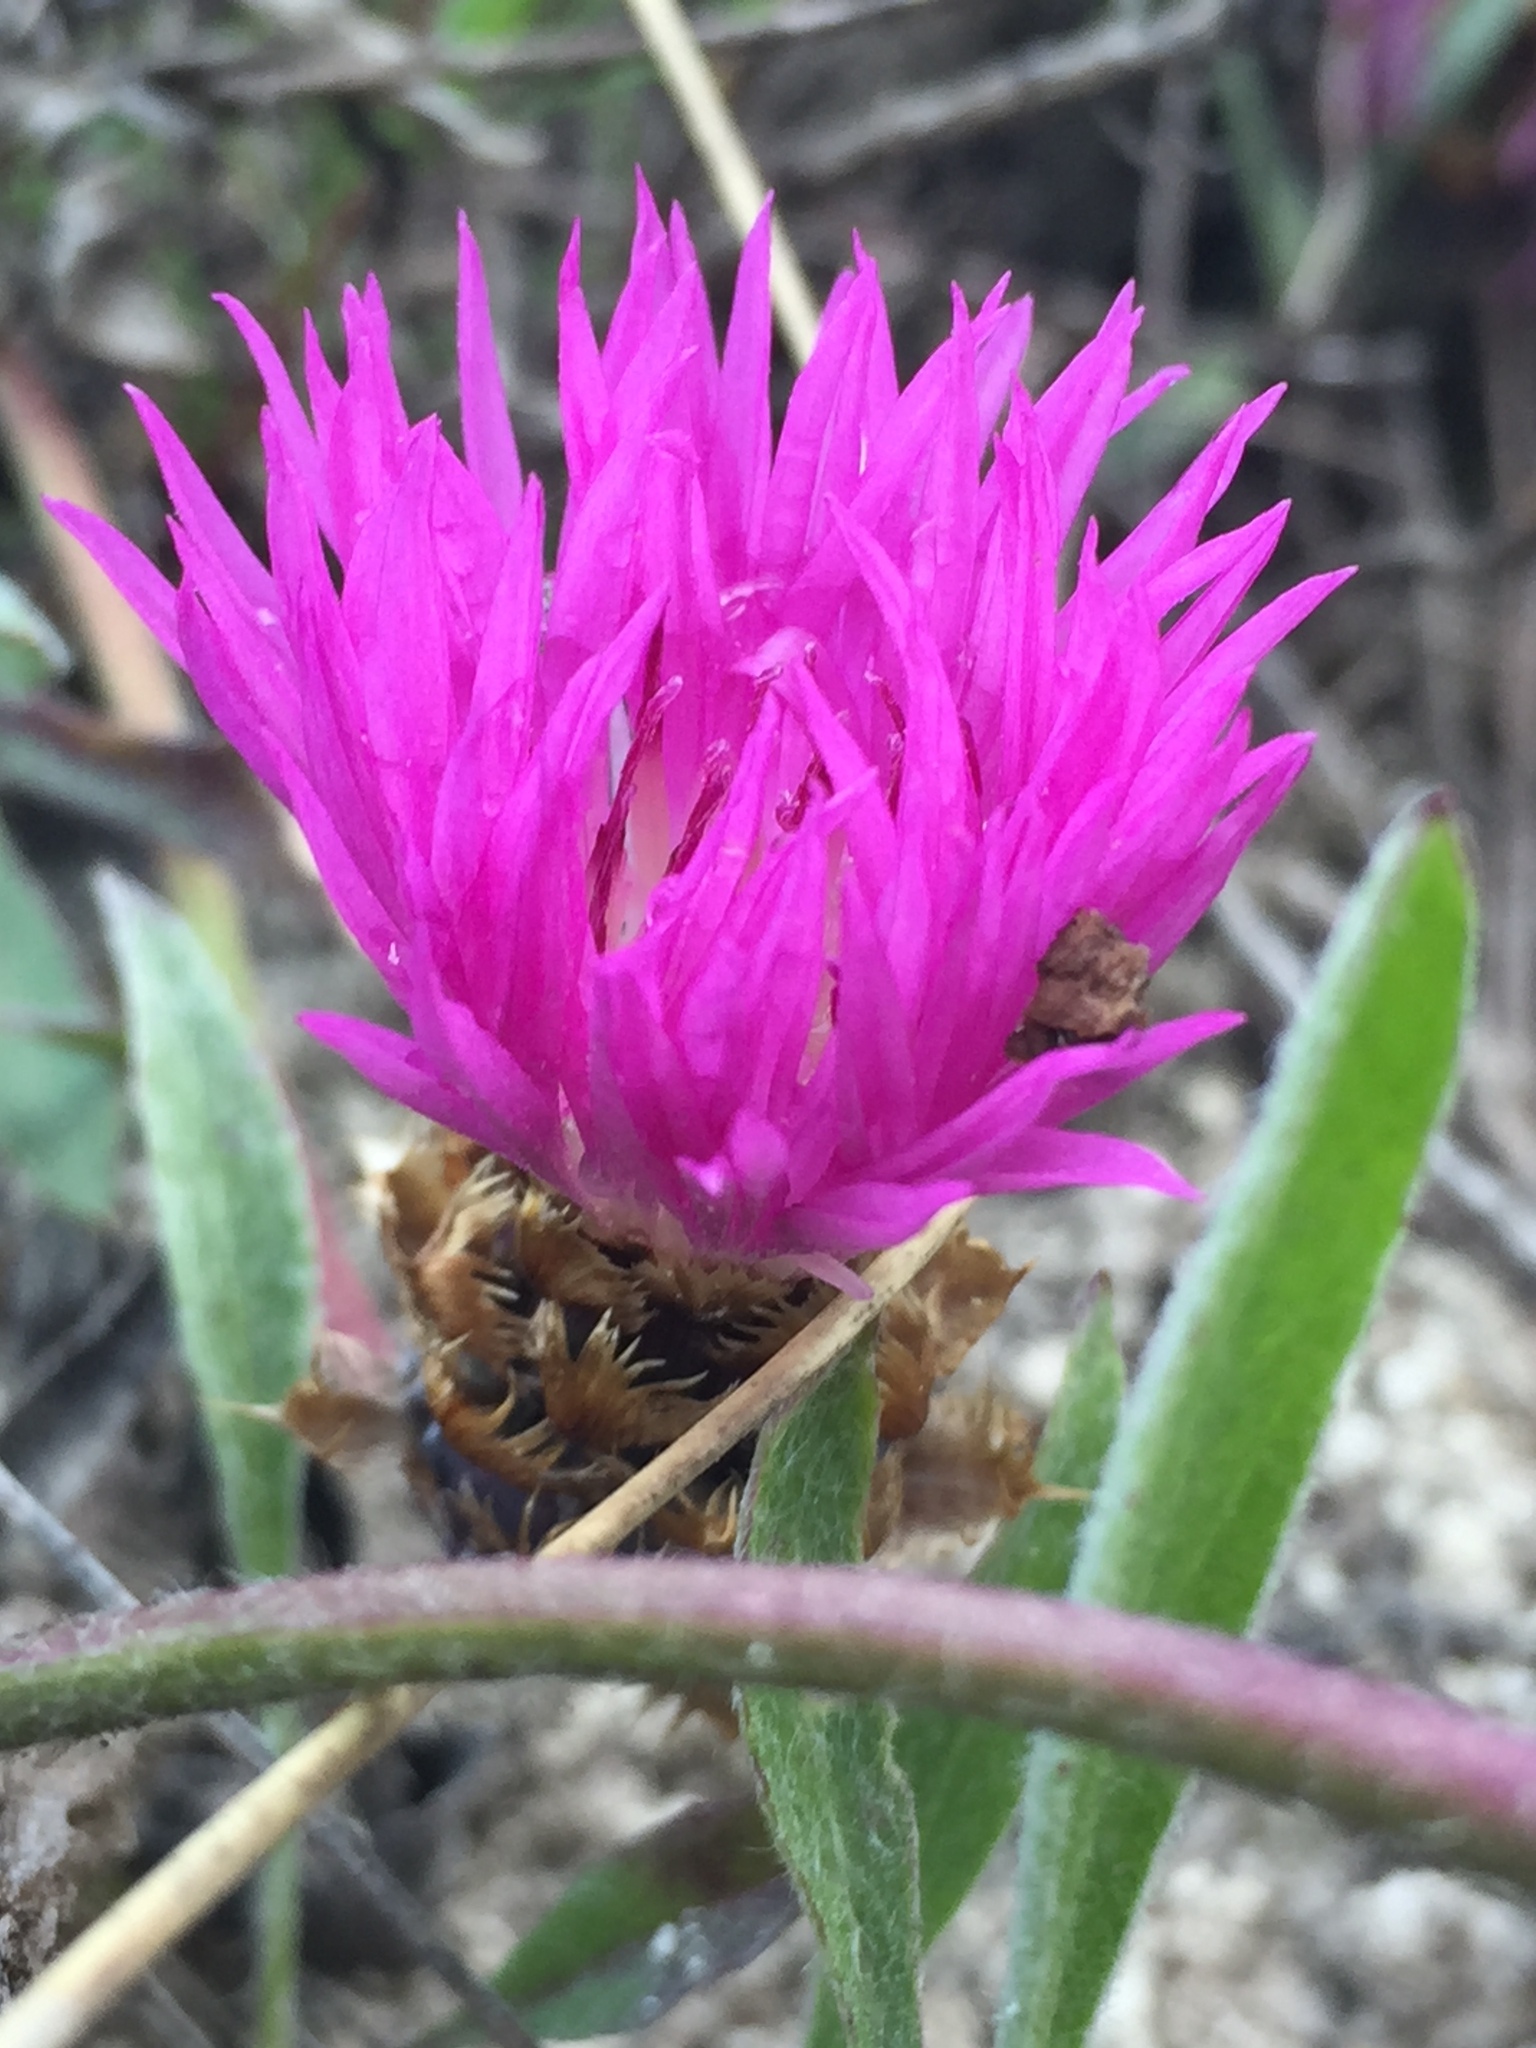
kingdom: Plantae
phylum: Tracheophyta
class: Magnoliopsida
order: Asterales
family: Asteraceae
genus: Psephellus
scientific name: Psephellus marschallianus
